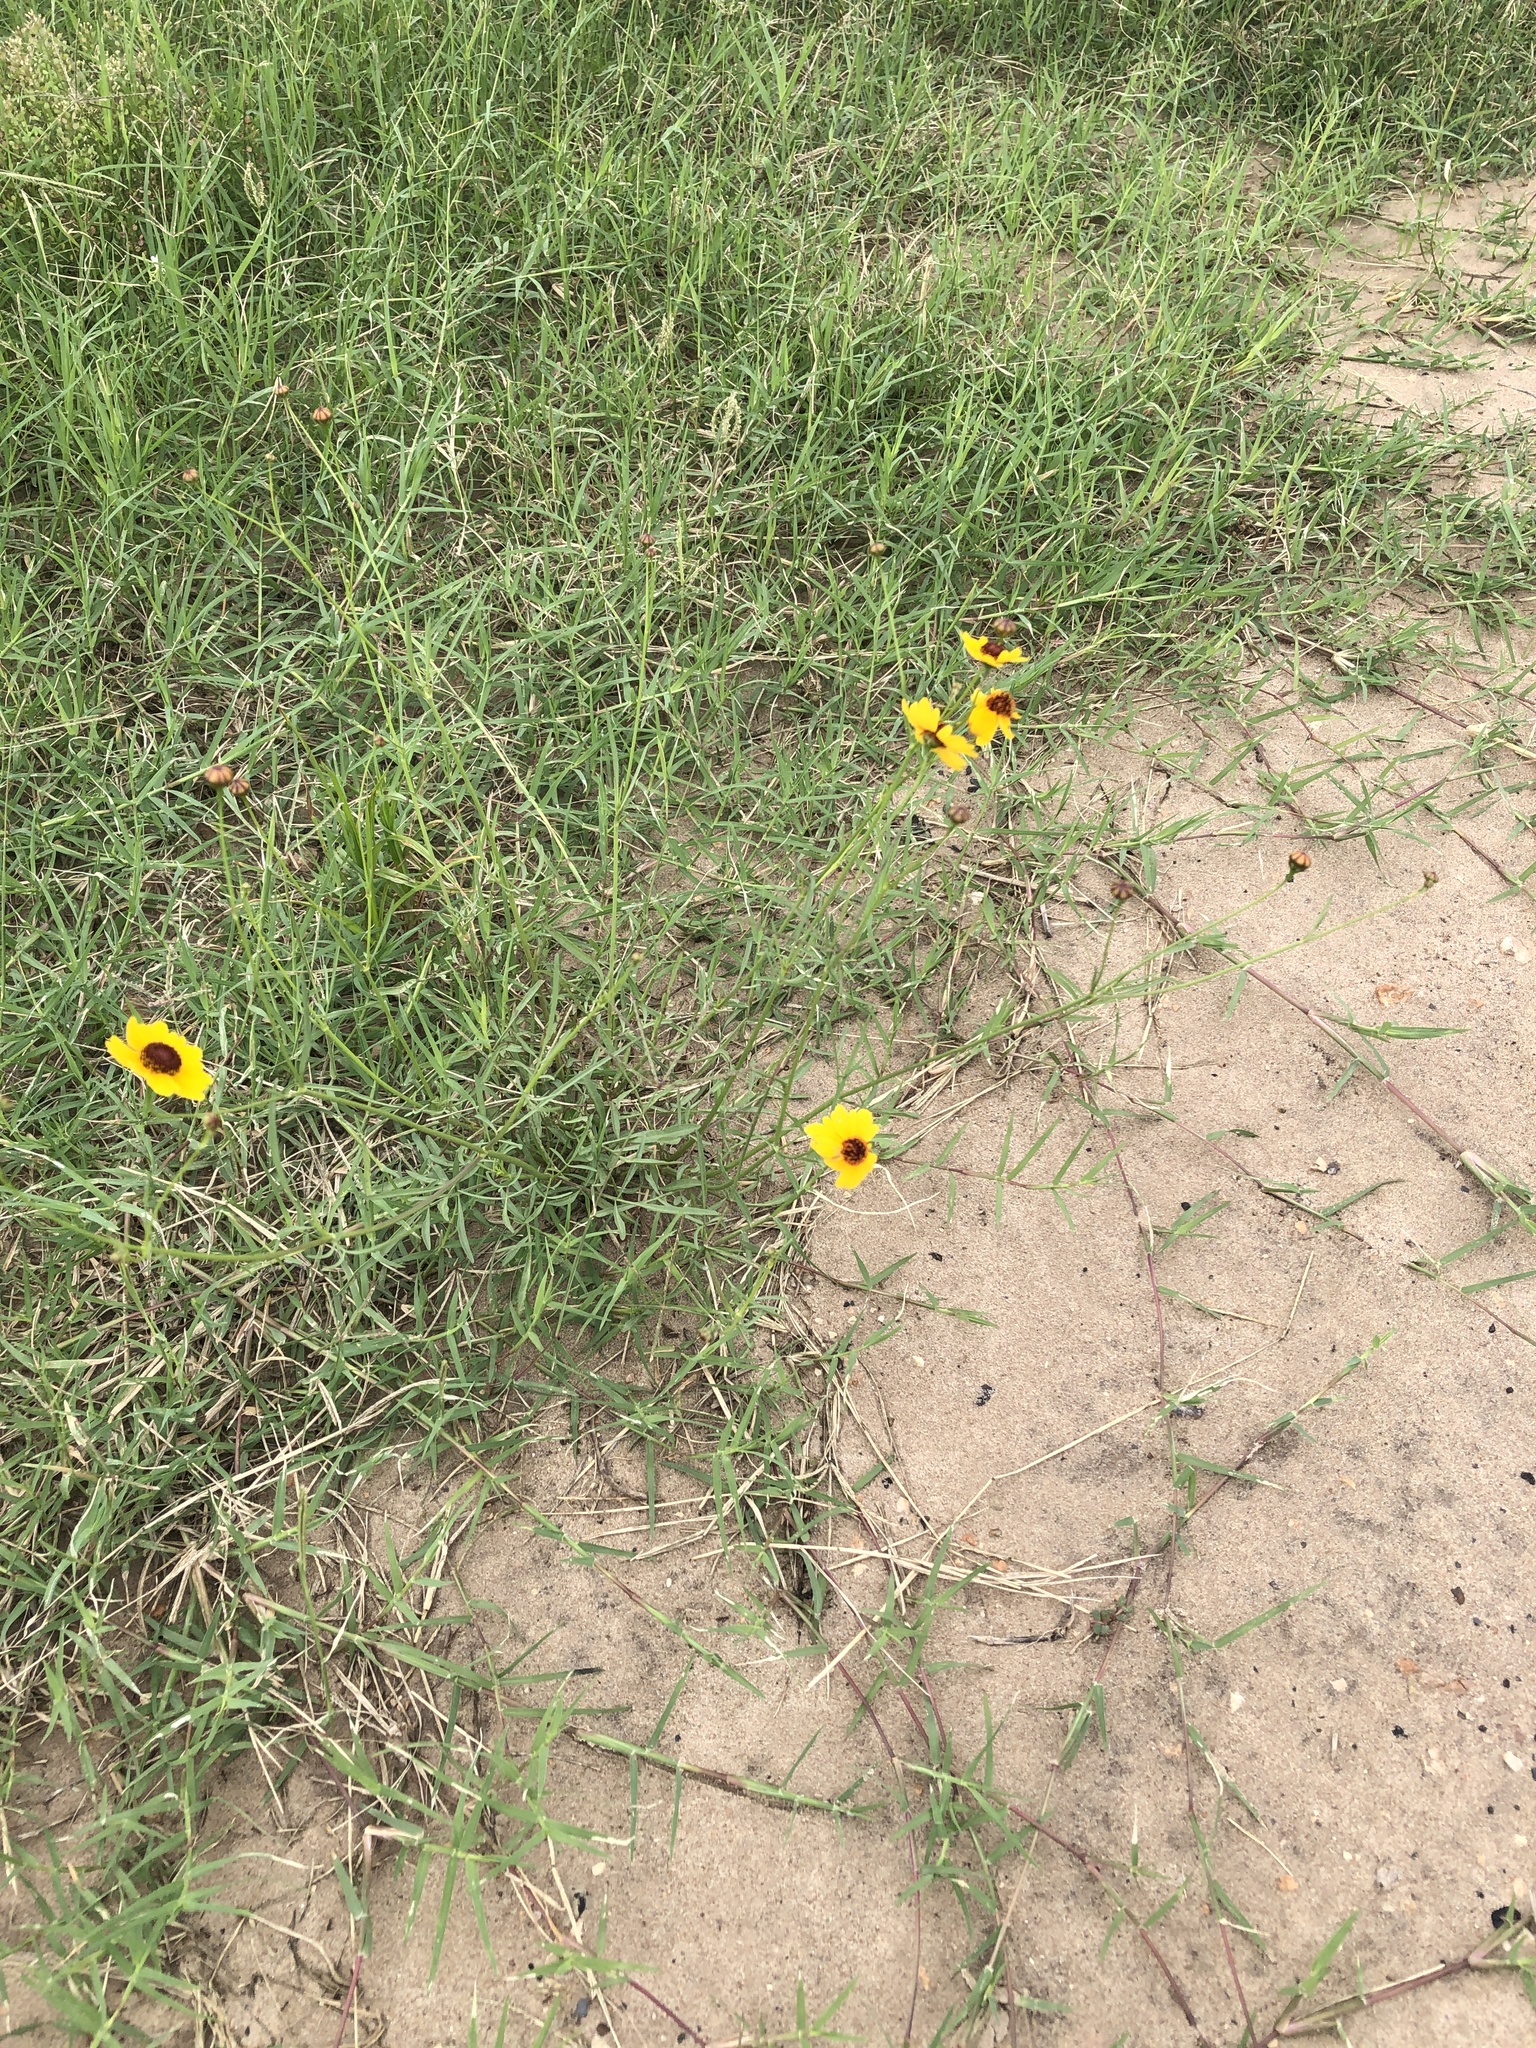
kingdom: Plantae
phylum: Tracheophyta
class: Magnoliopsida
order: Asterales
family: Asteraceae
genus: Coreopsis
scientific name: Coreopsis tinctoria
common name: Garden tickseed
